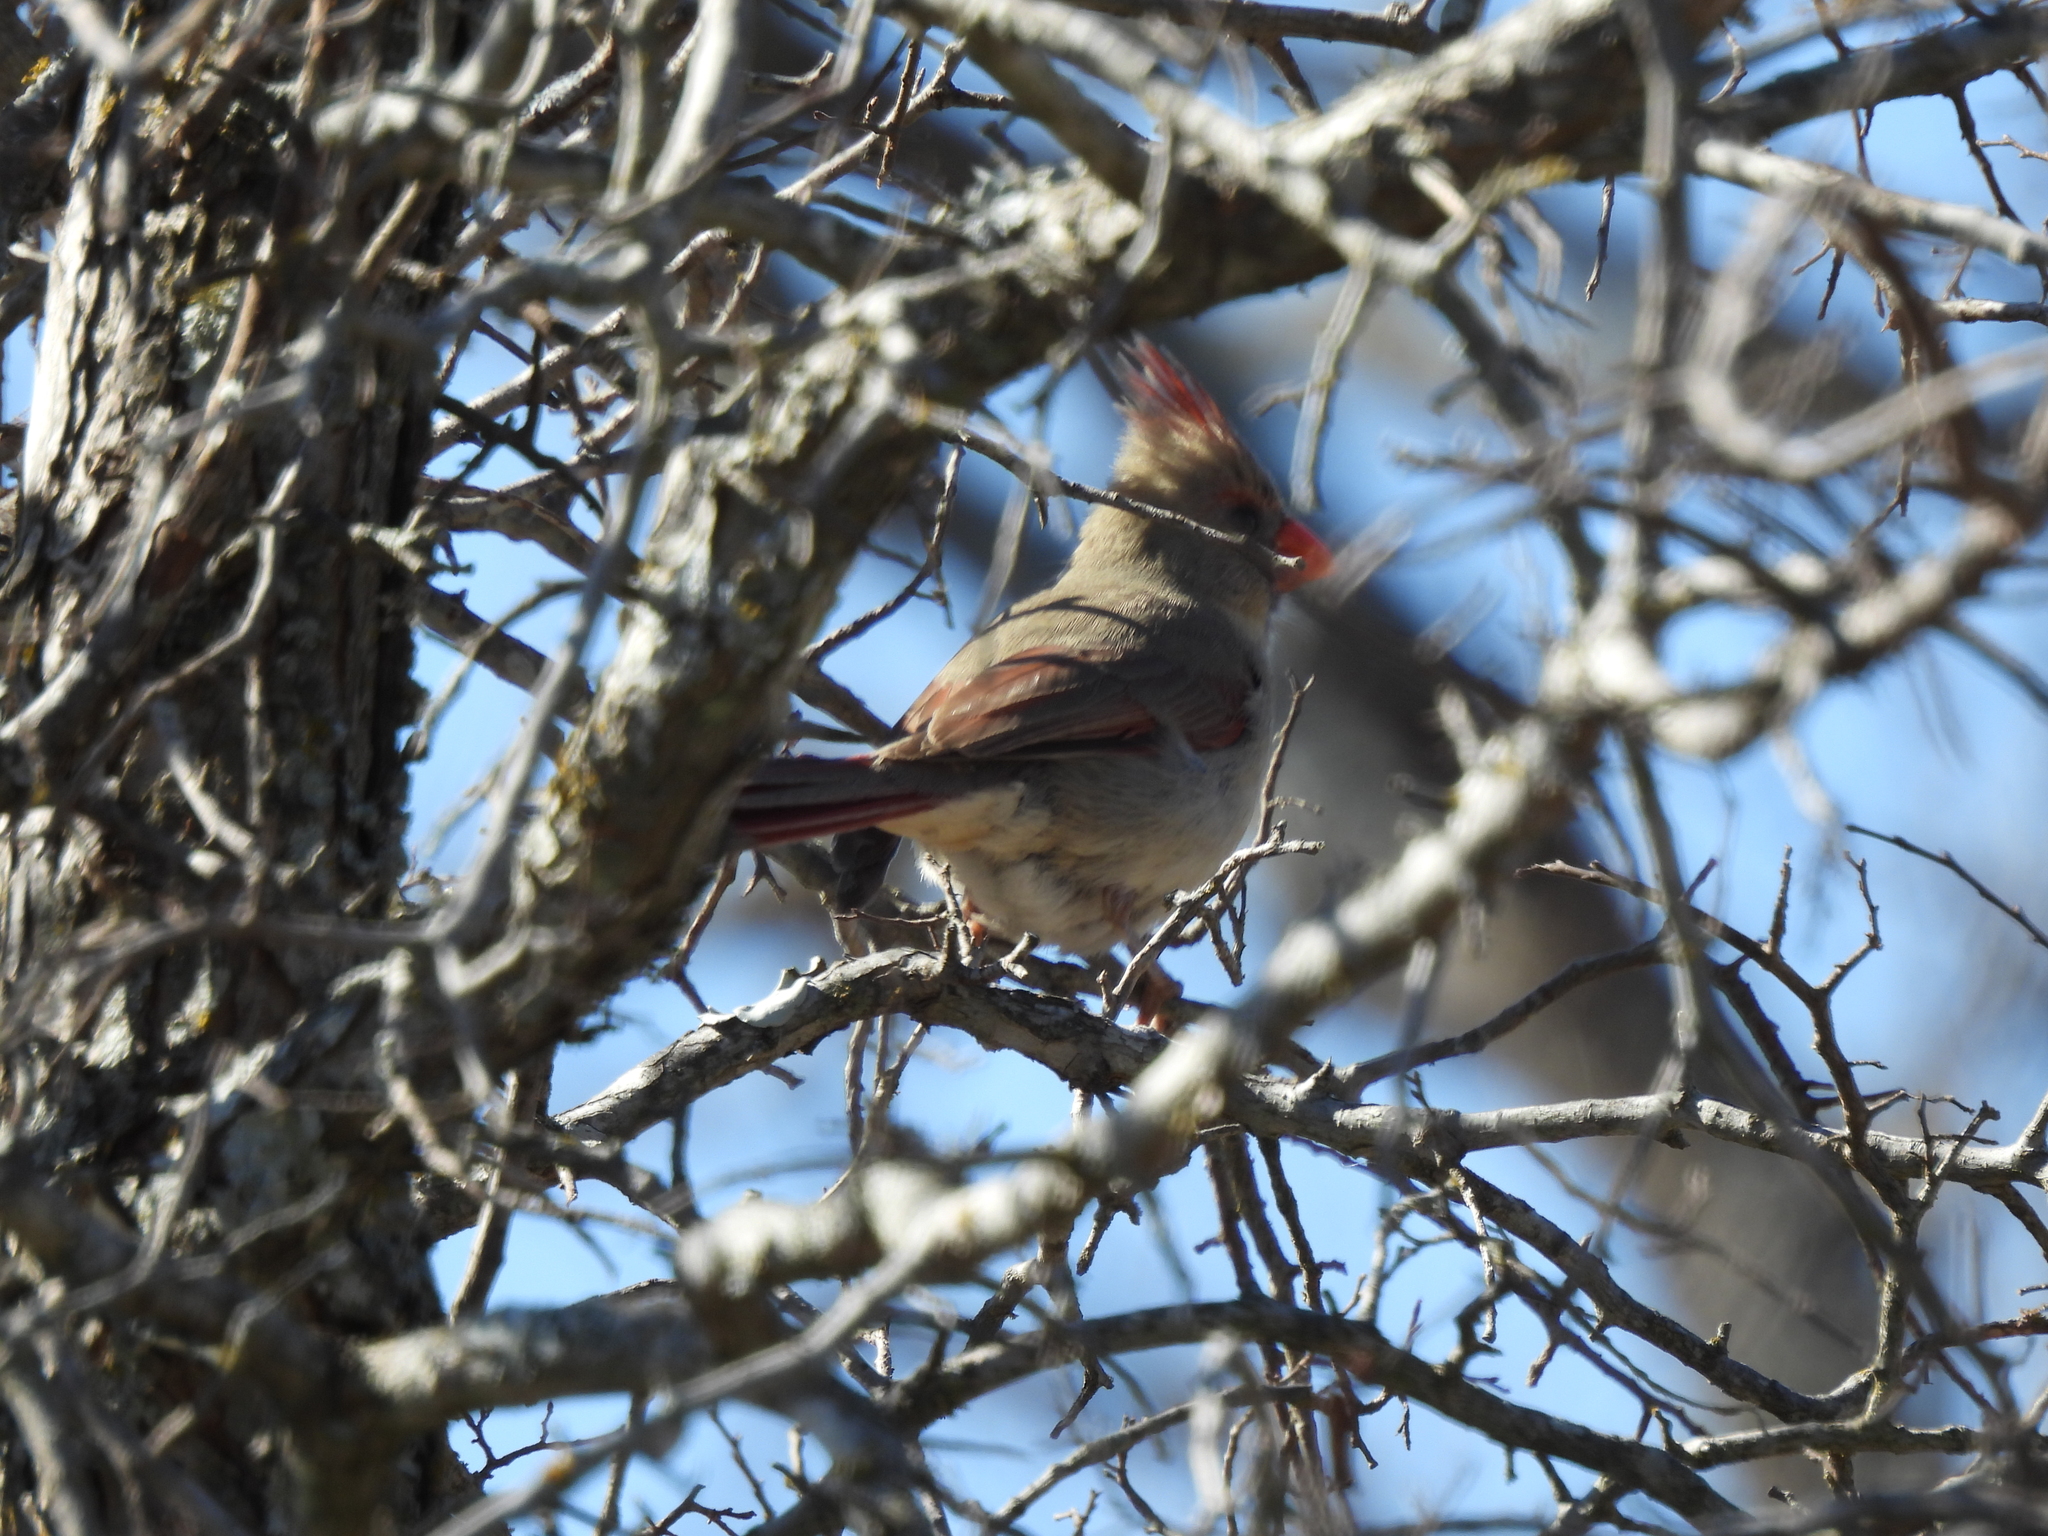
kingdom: Animalia
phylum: Chordata
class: Aves
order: Passeriformes
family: Cardinalidae
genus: Cardinalis
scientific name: Cardinalis cardinalis
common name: Northern cardinal
